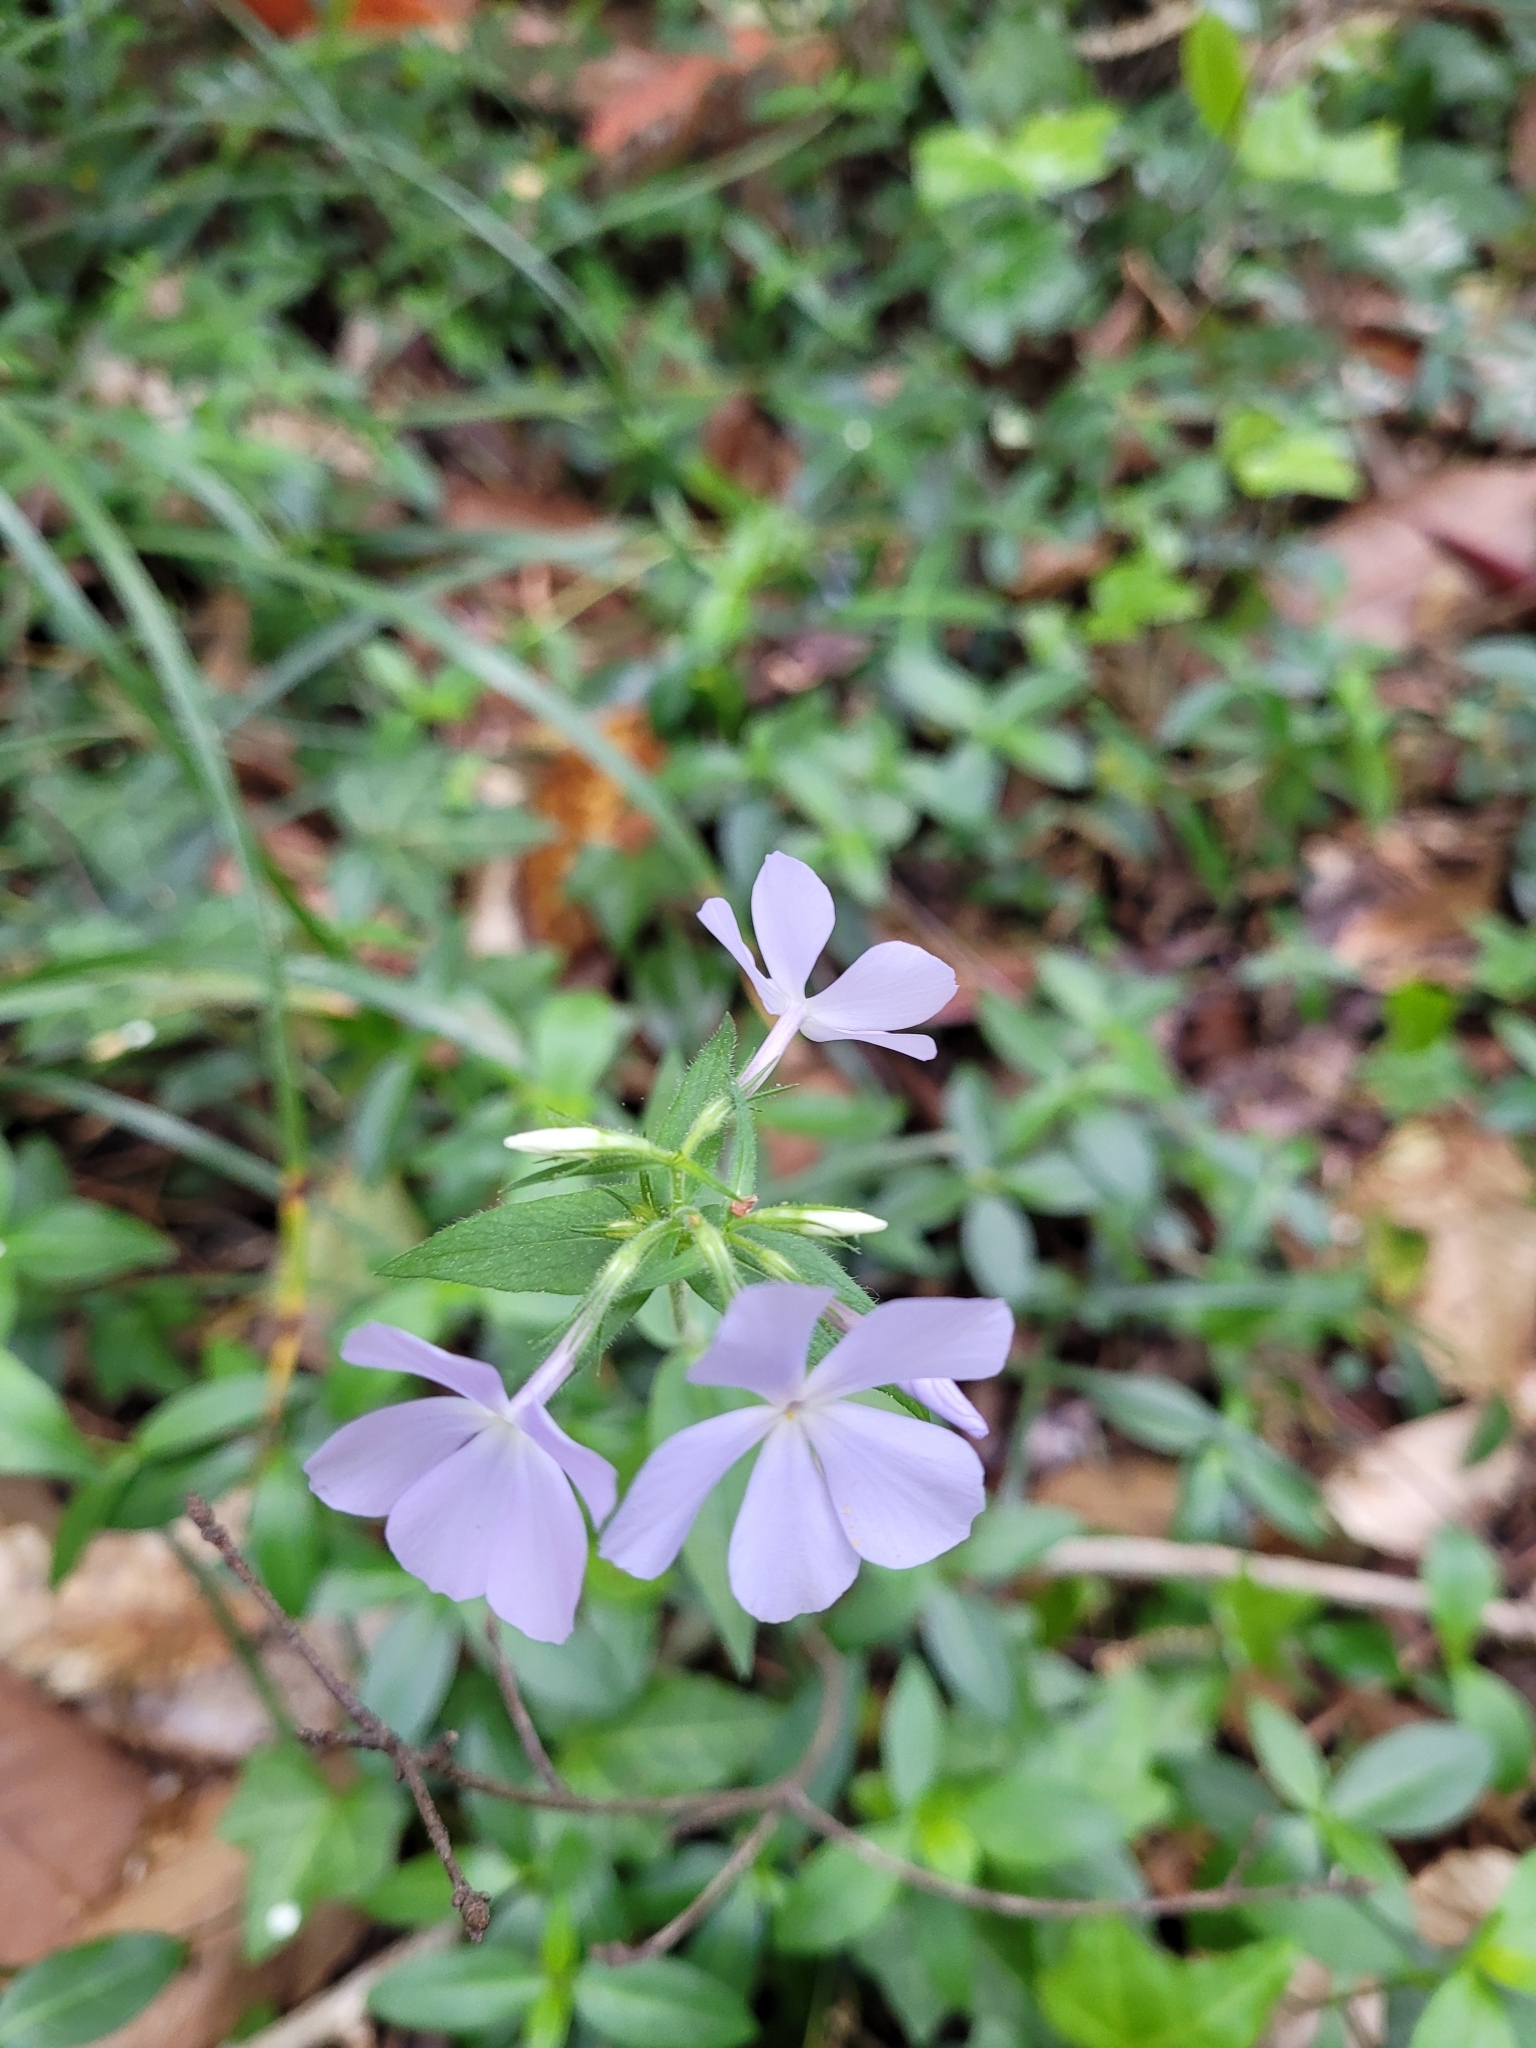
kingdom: Plantae
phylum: Tracheophyta
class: Magnoliopsida
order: Ericales
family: Polemoniaceae
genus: Phlox
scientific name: Phlox divaricata
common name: Blue phlox
